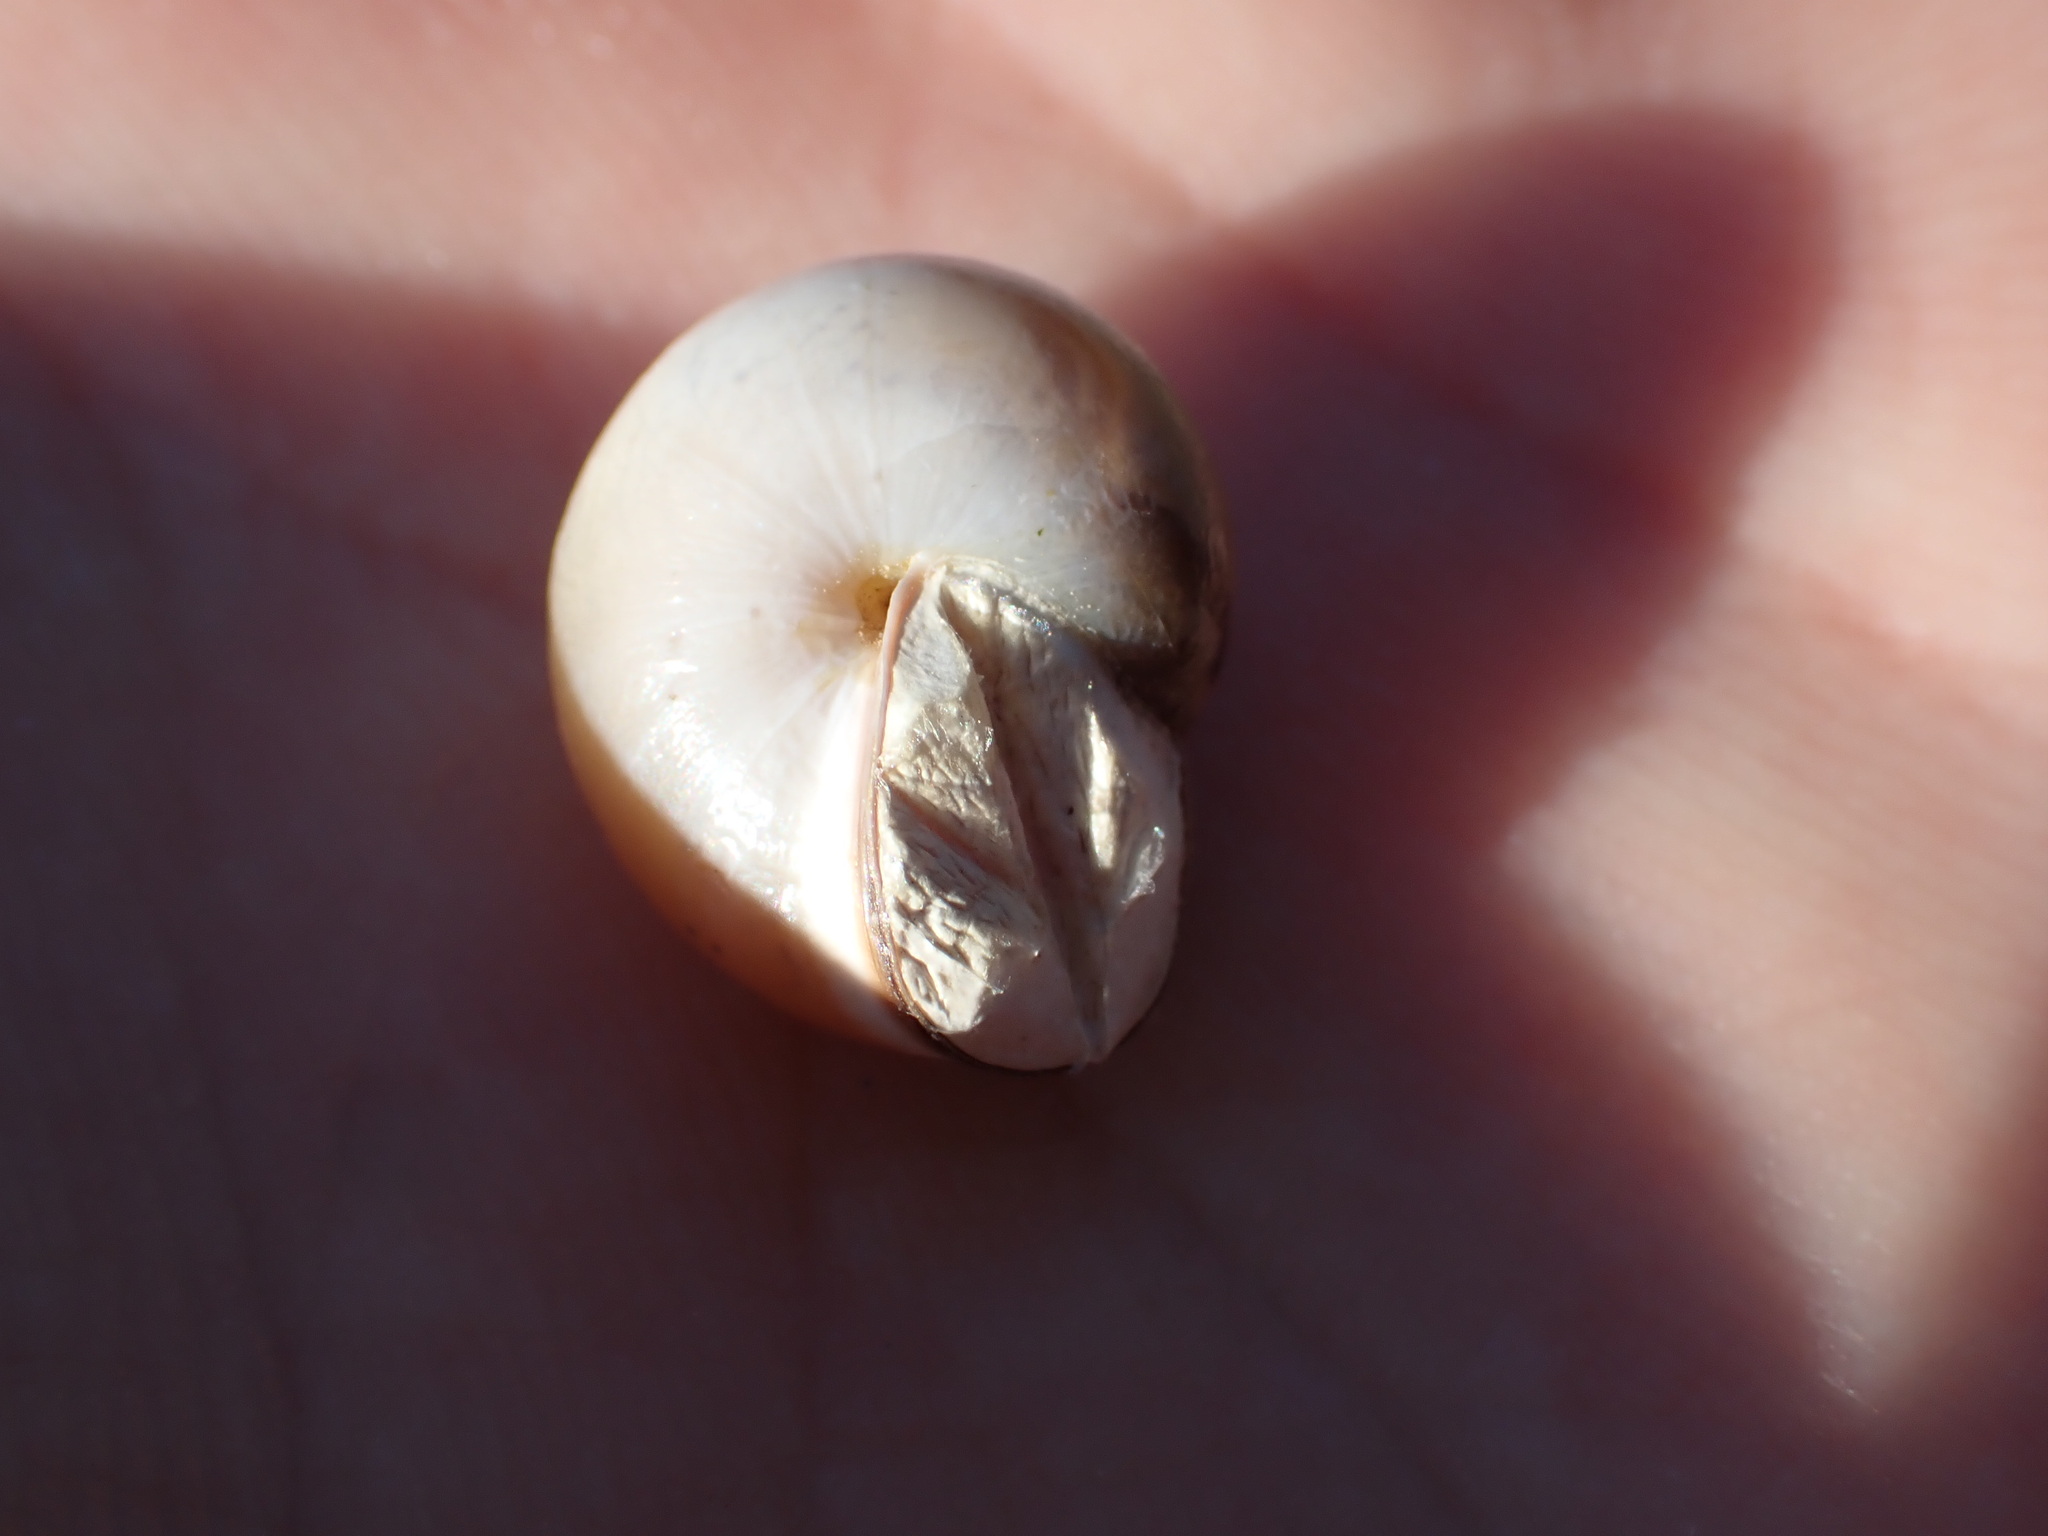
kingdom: Animalia
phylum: Mollusca
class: Gastropoda
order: Stylommatophora
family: Hygromiidae
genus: Monacha
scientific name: Monacha cartusiana
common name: Carthusian snail
